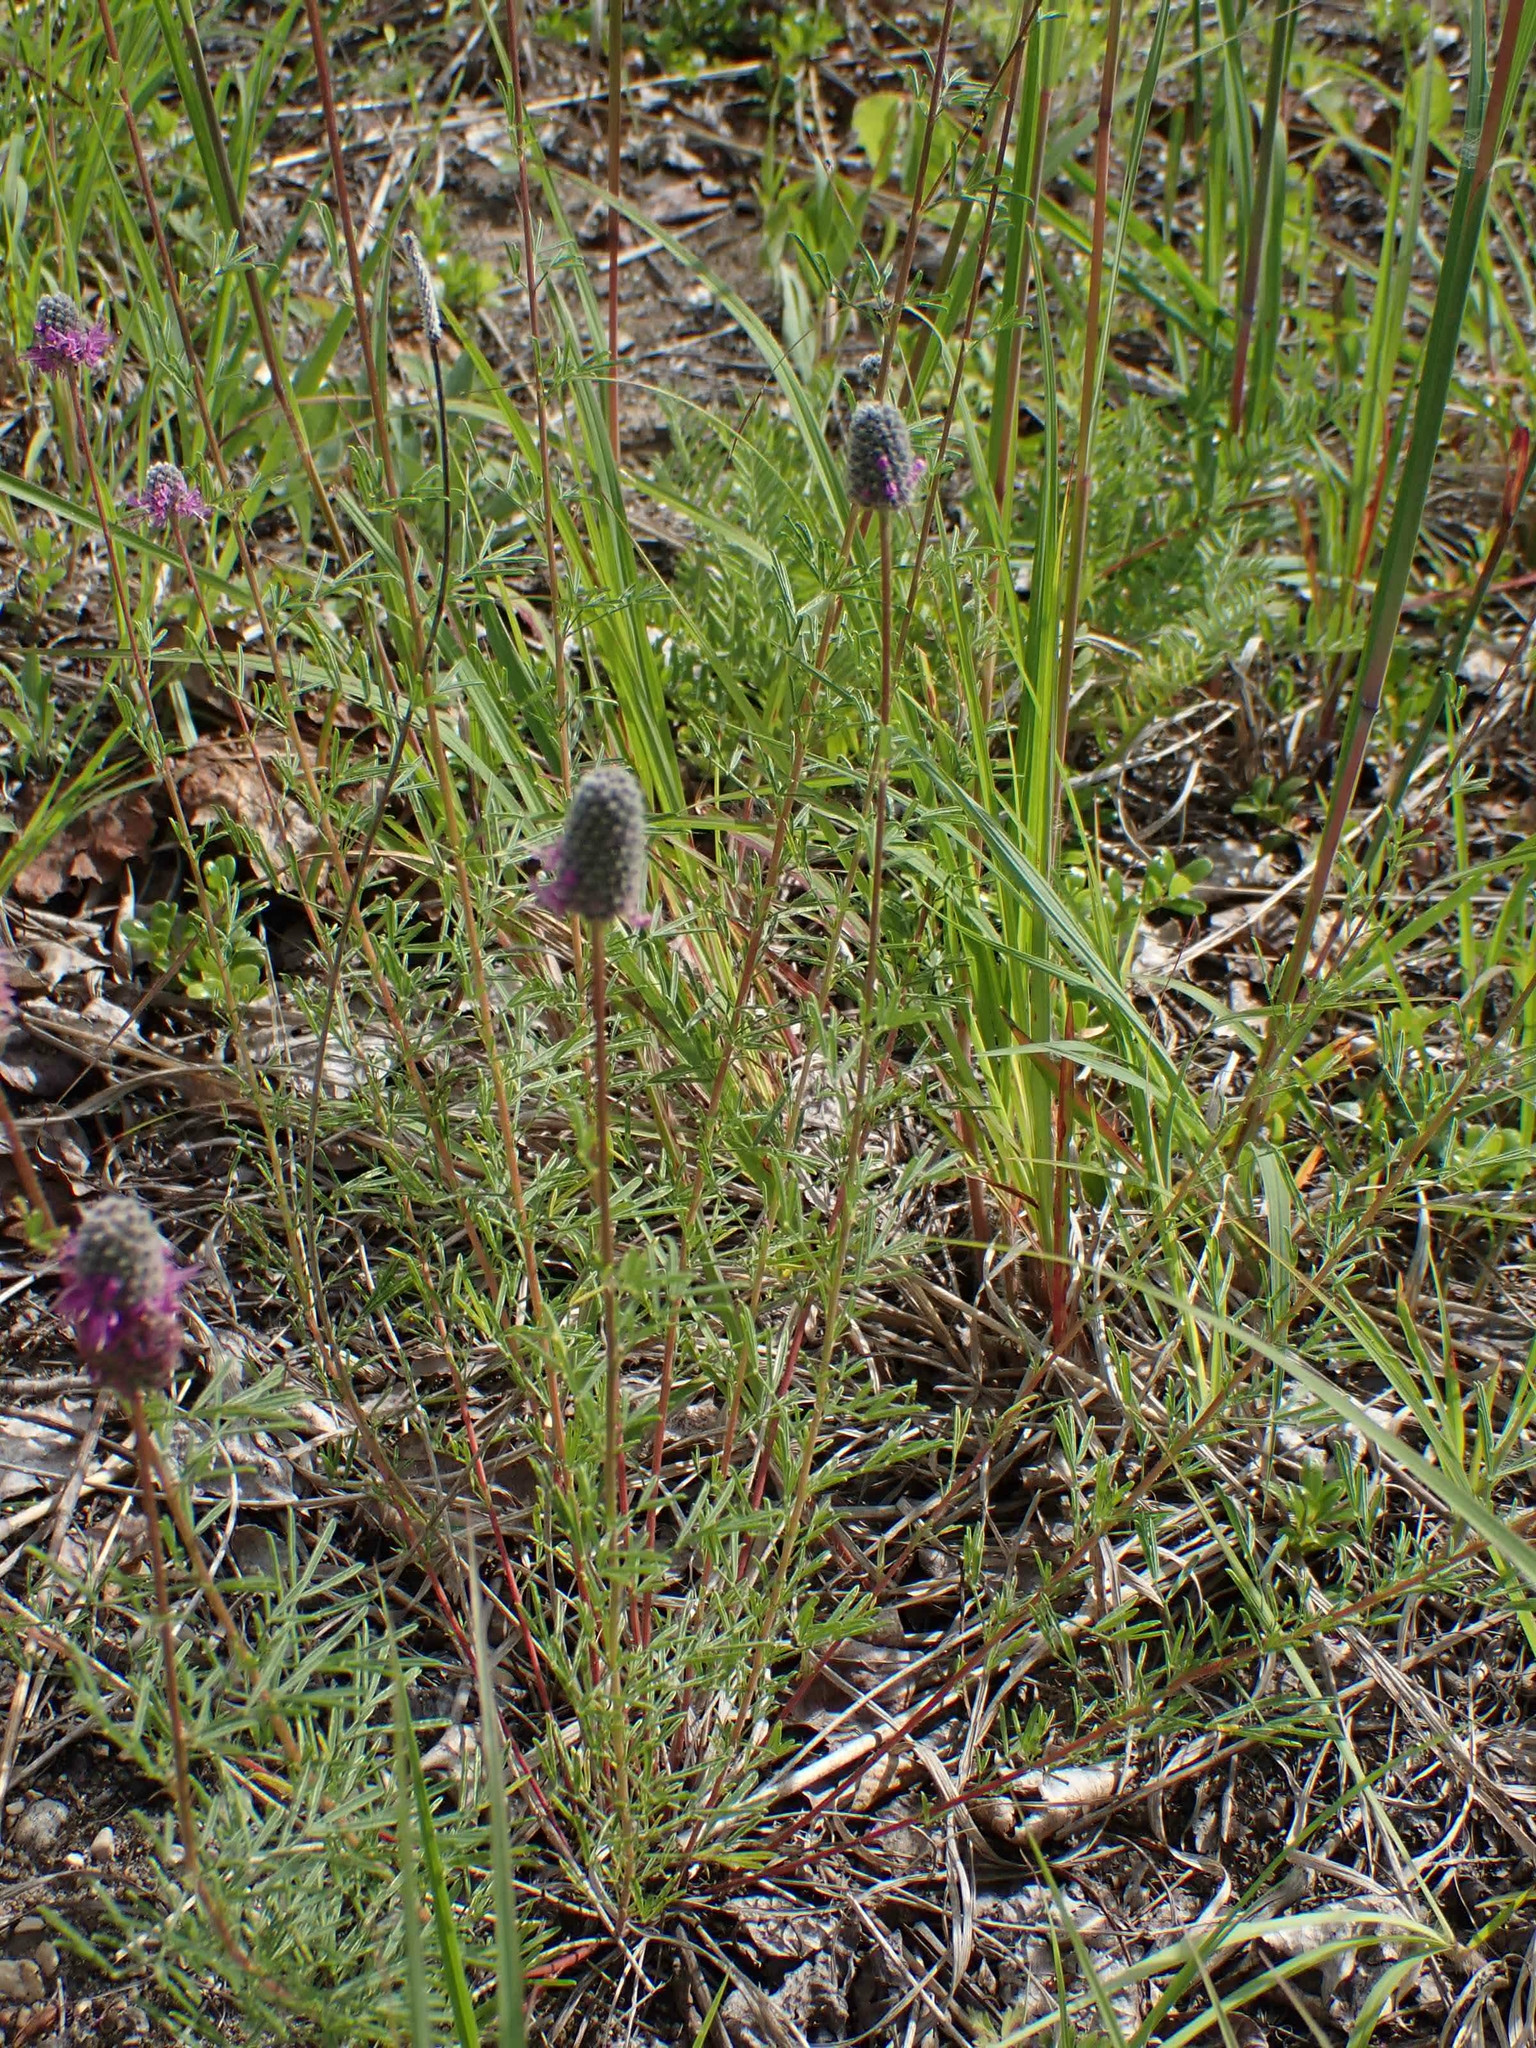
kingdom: Plantae
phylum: Tracheophyta
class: Magnoliopsida
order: Fabales
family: Fabaceae
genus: Dalea
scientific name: Dalea purpurea
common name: Purple prairie-clover
